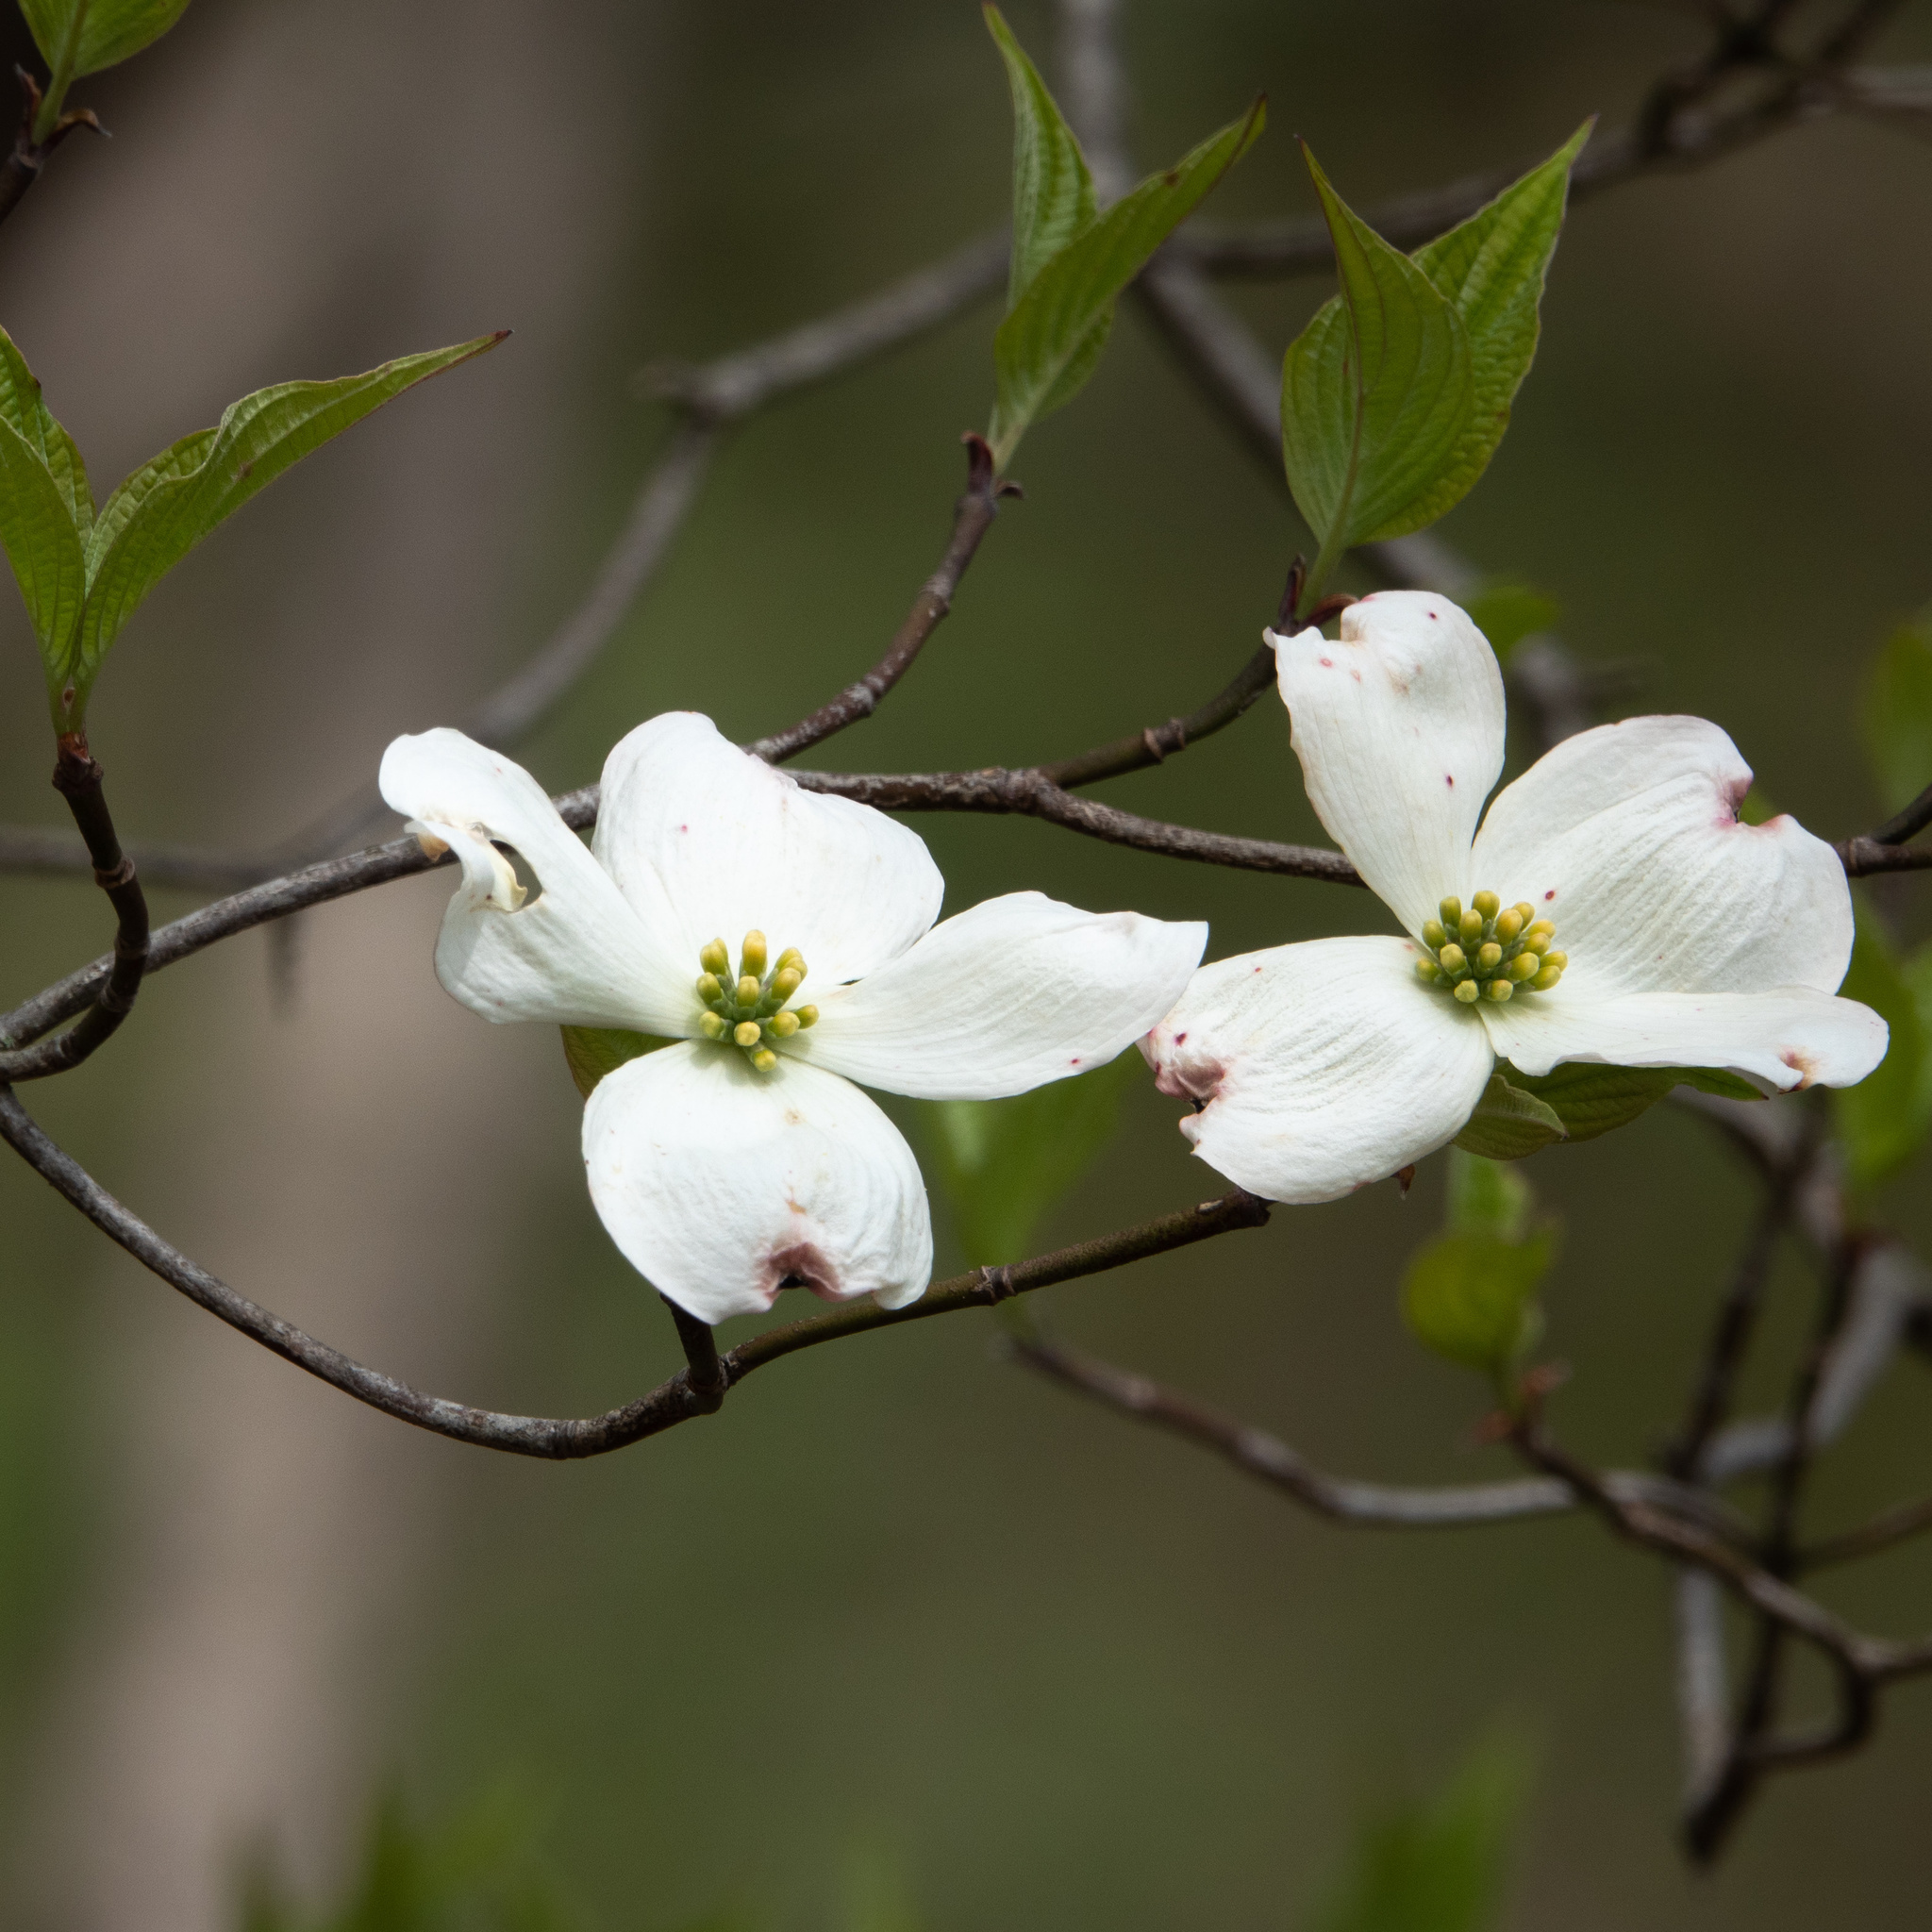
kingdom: Plantae
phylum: Tracheophyta
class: Magnoliopsida
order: Cornales
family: Cornaceae
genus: Cornus
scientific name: Cornus florida
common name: Flowering dogwood
